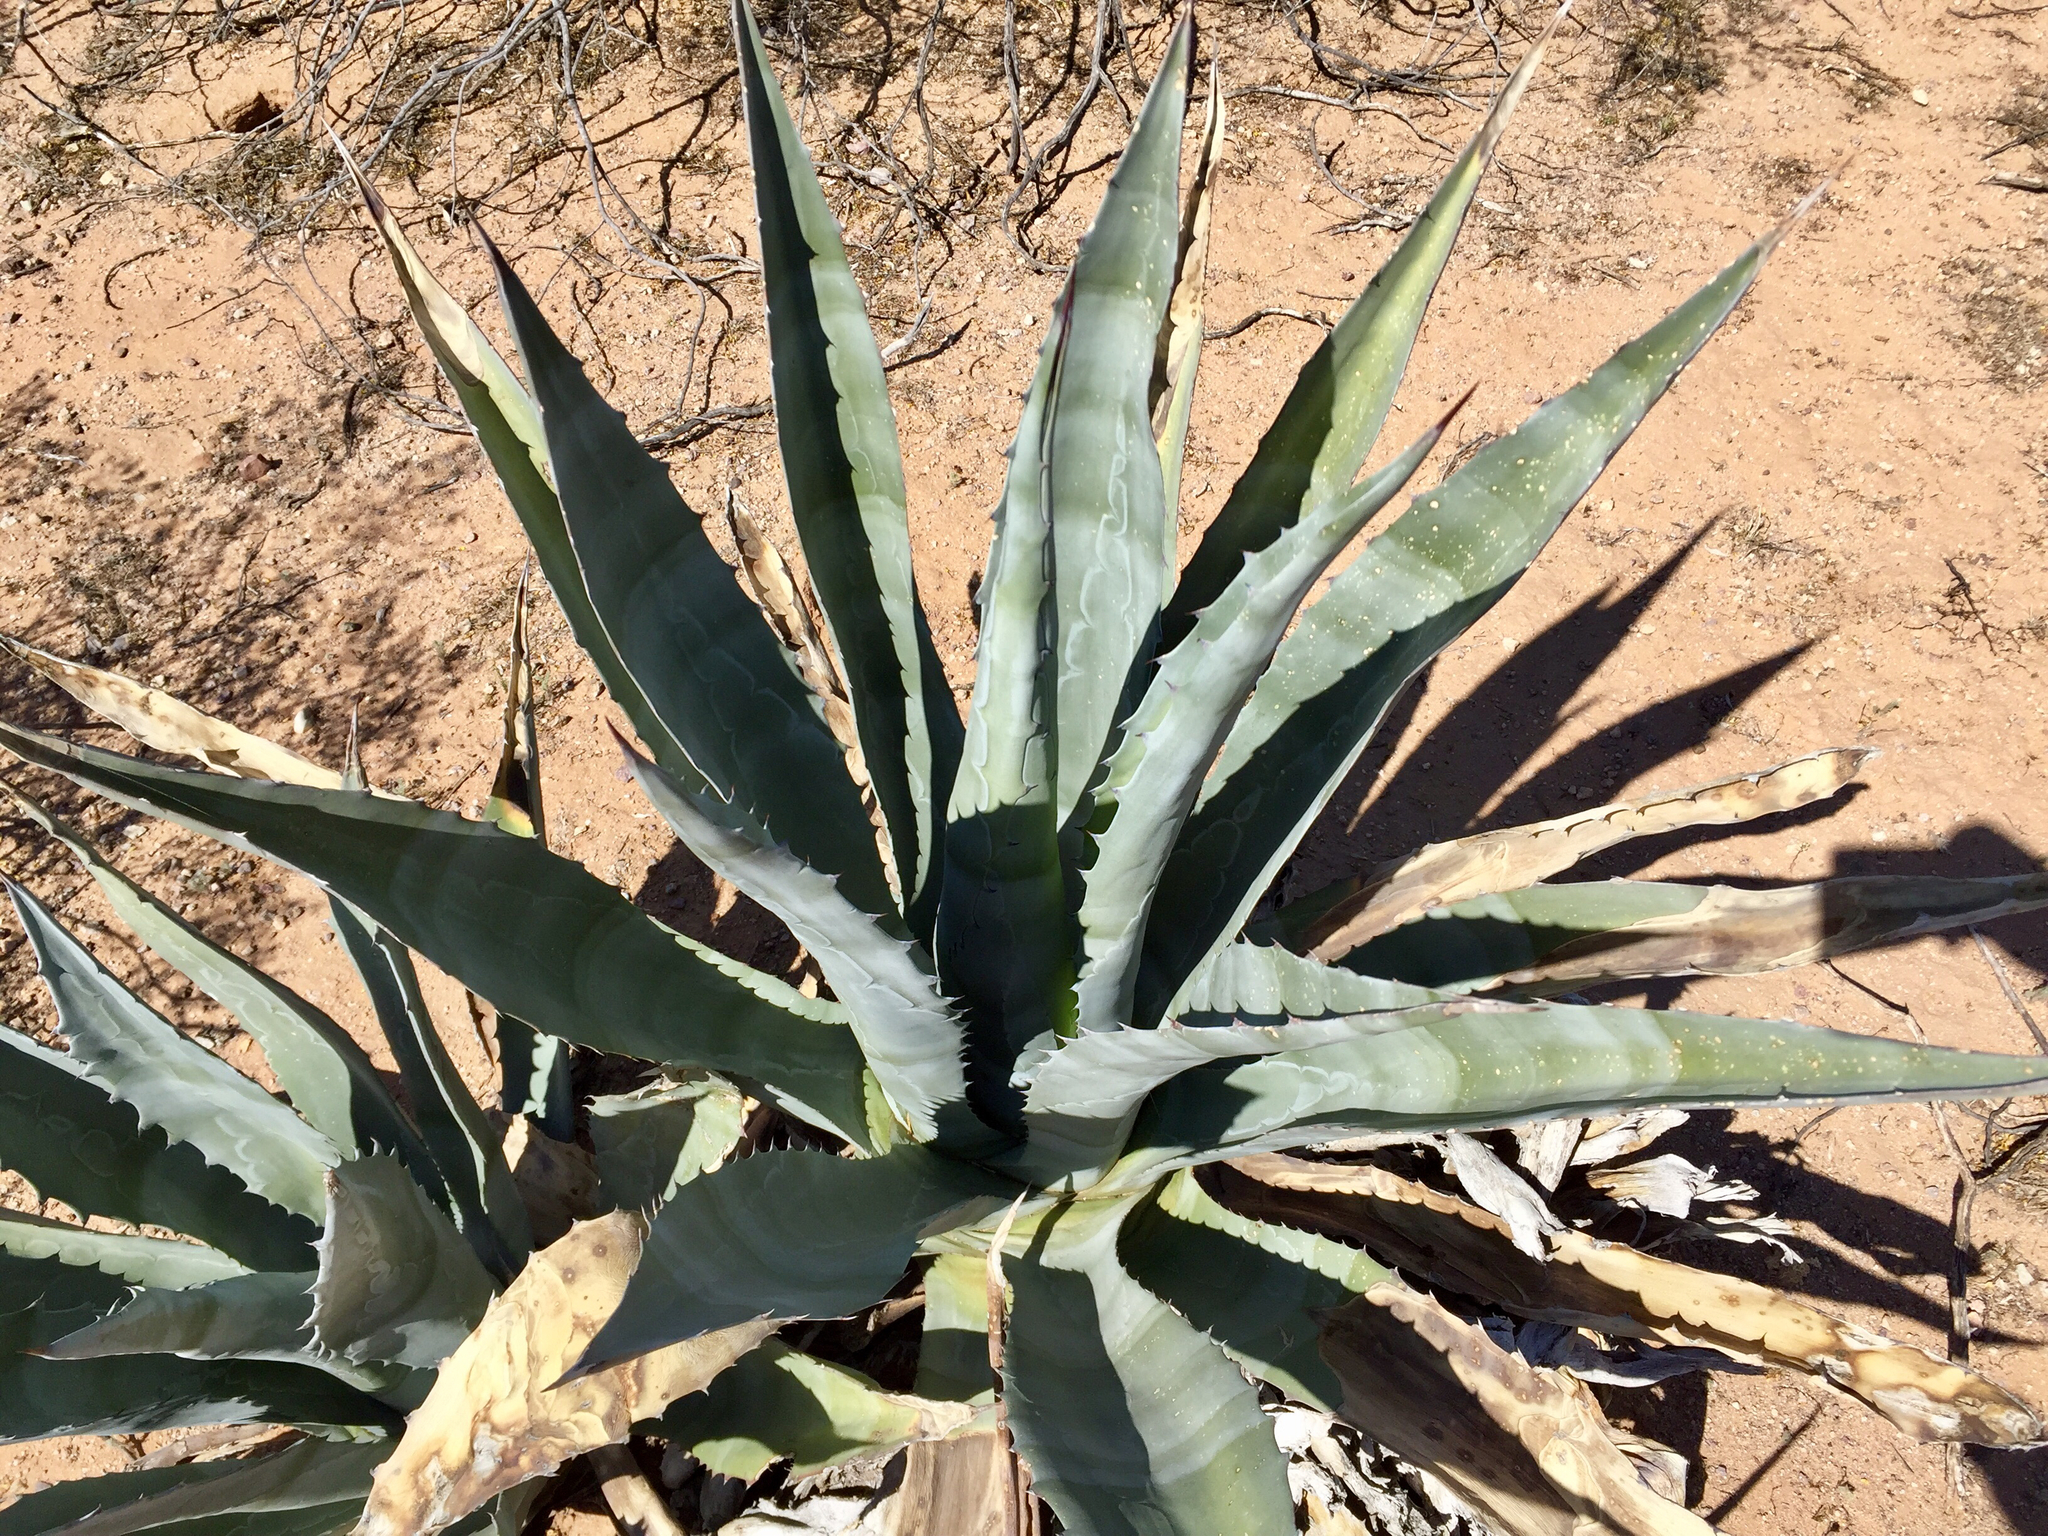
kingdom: Plantae
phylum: Tracheophyta
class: Liliopsida
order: Asparagales
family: Asparagaceae
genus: Agave
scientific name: Agave americana
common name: Centuryplant
